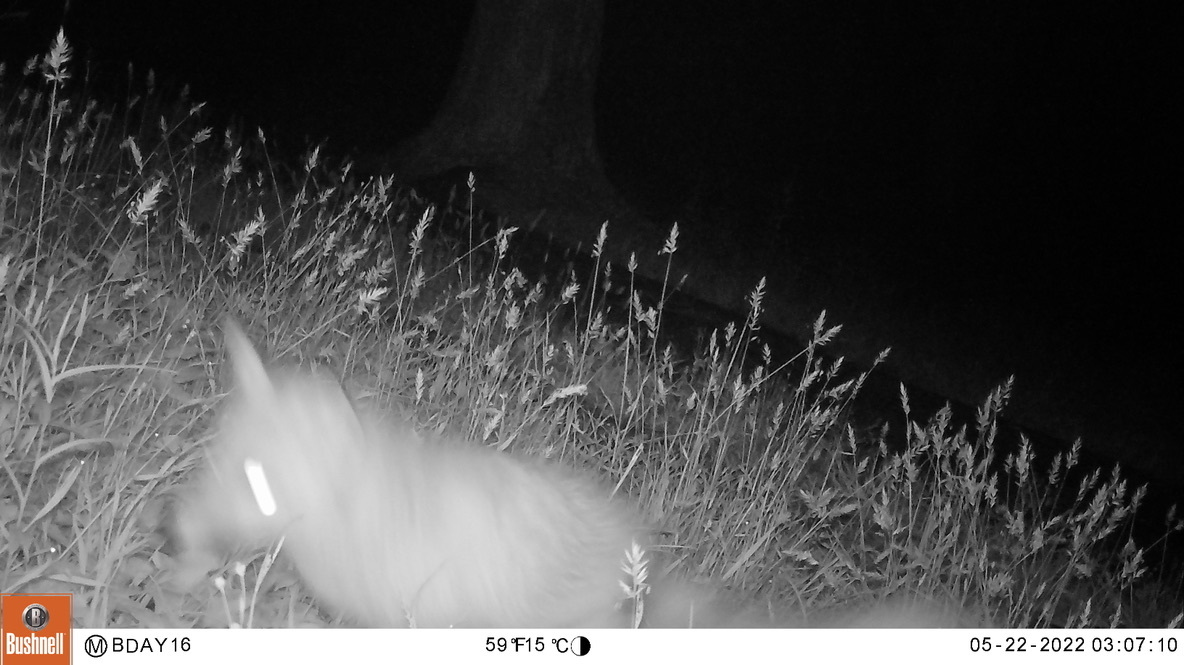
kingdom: Animalia
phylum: Chordata
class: Mammalia
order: Carnivora
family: Canidae
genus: Vulpes
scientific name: Vulpes vulpes
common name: Red fox
